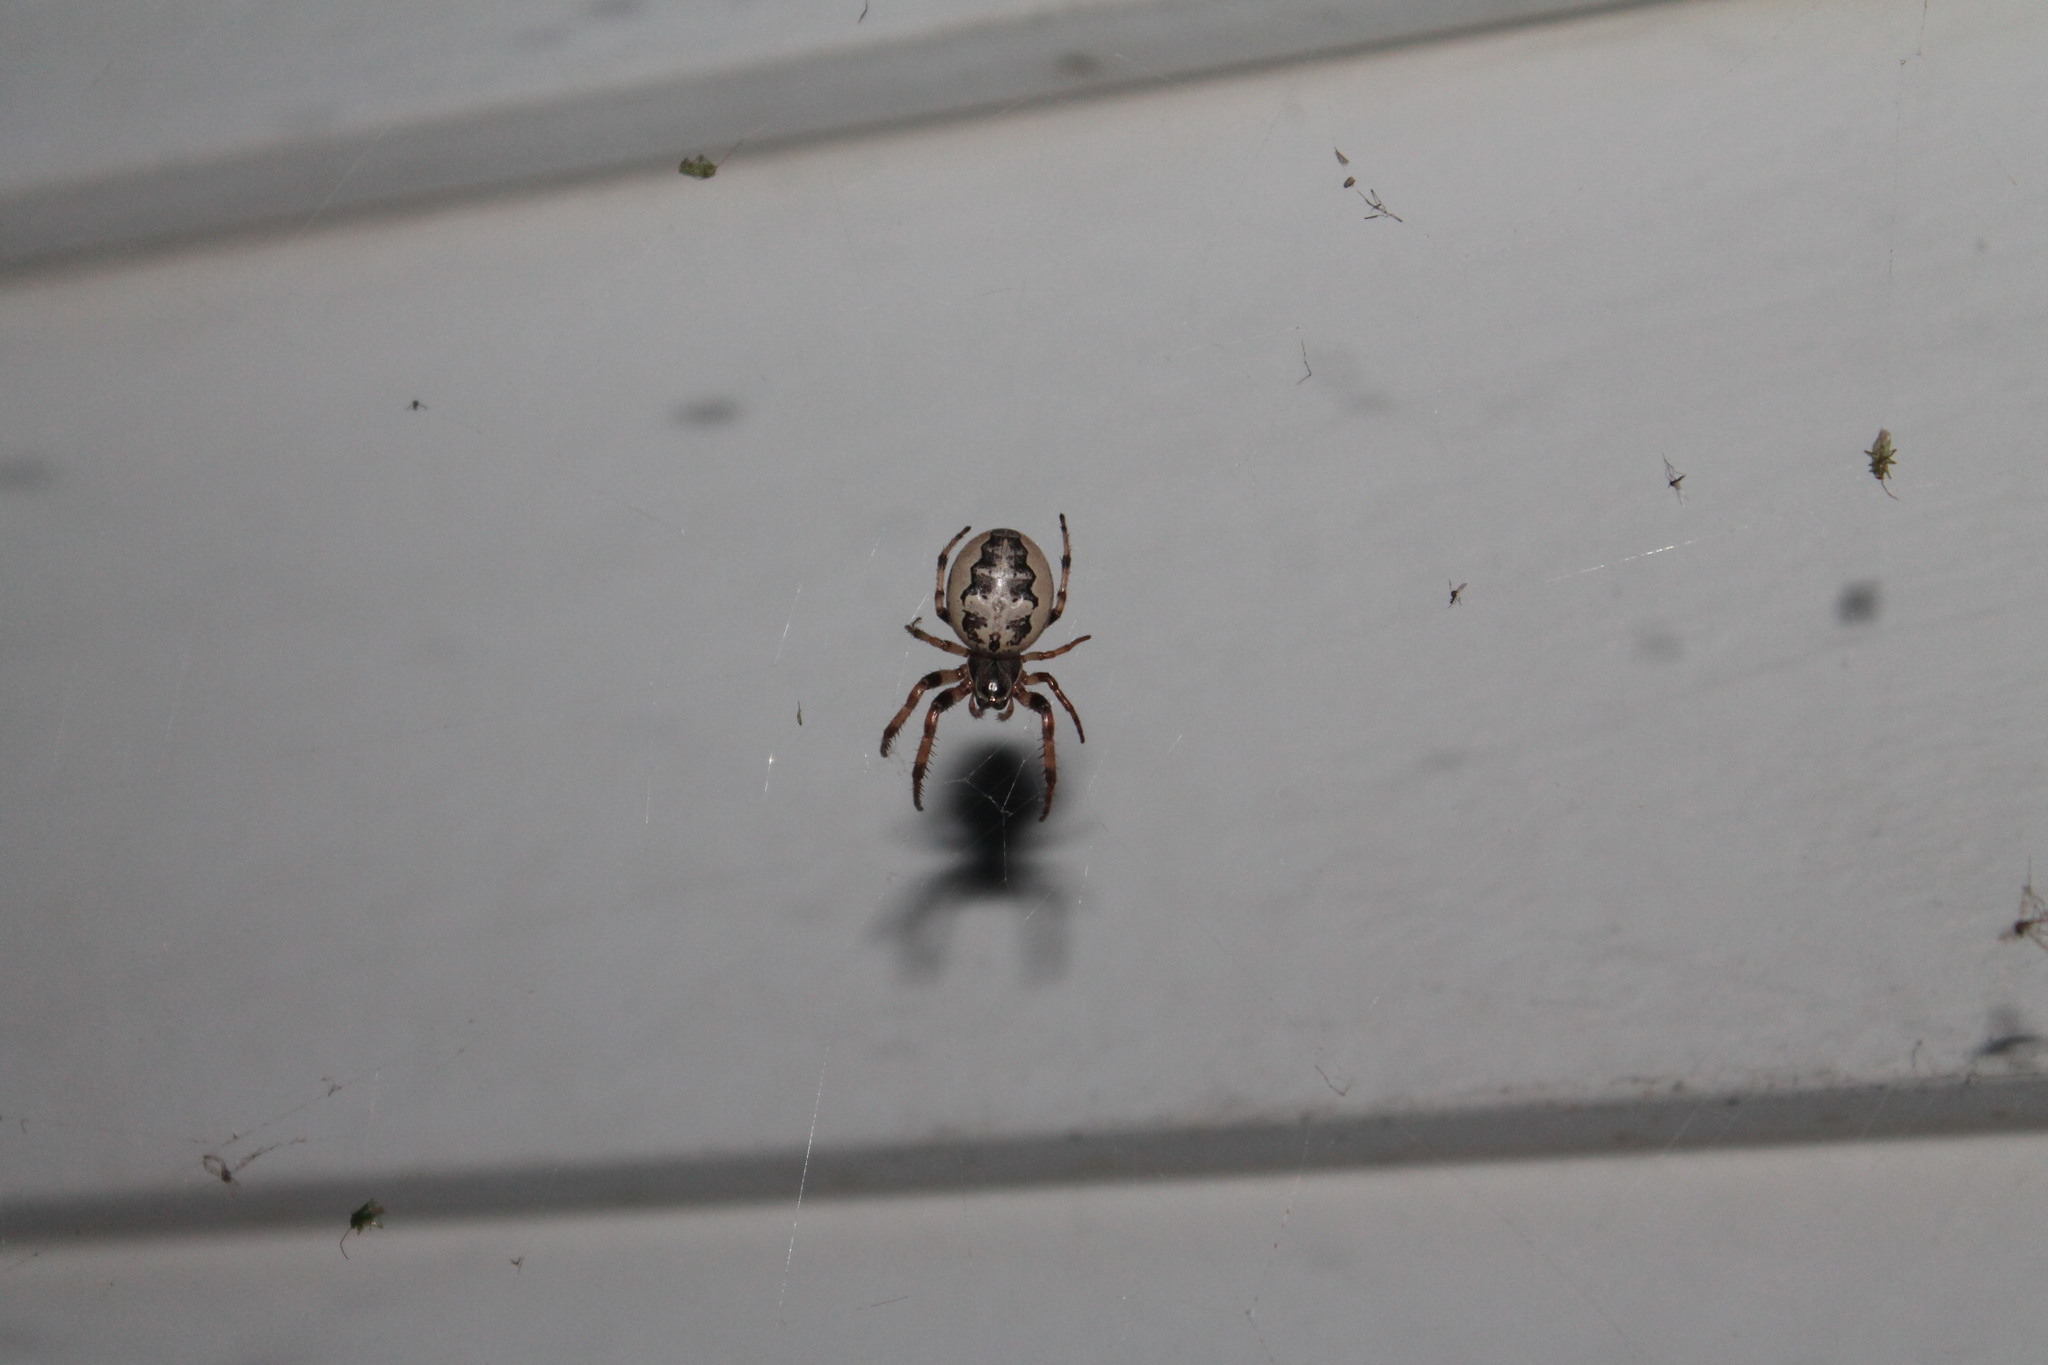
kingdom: Animalia
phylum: Arthropoda
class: Arachnida
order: Araneae
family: Araneidae
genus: Larinioides
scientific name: Larinioides cornutus
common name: Furrow orbweaver
